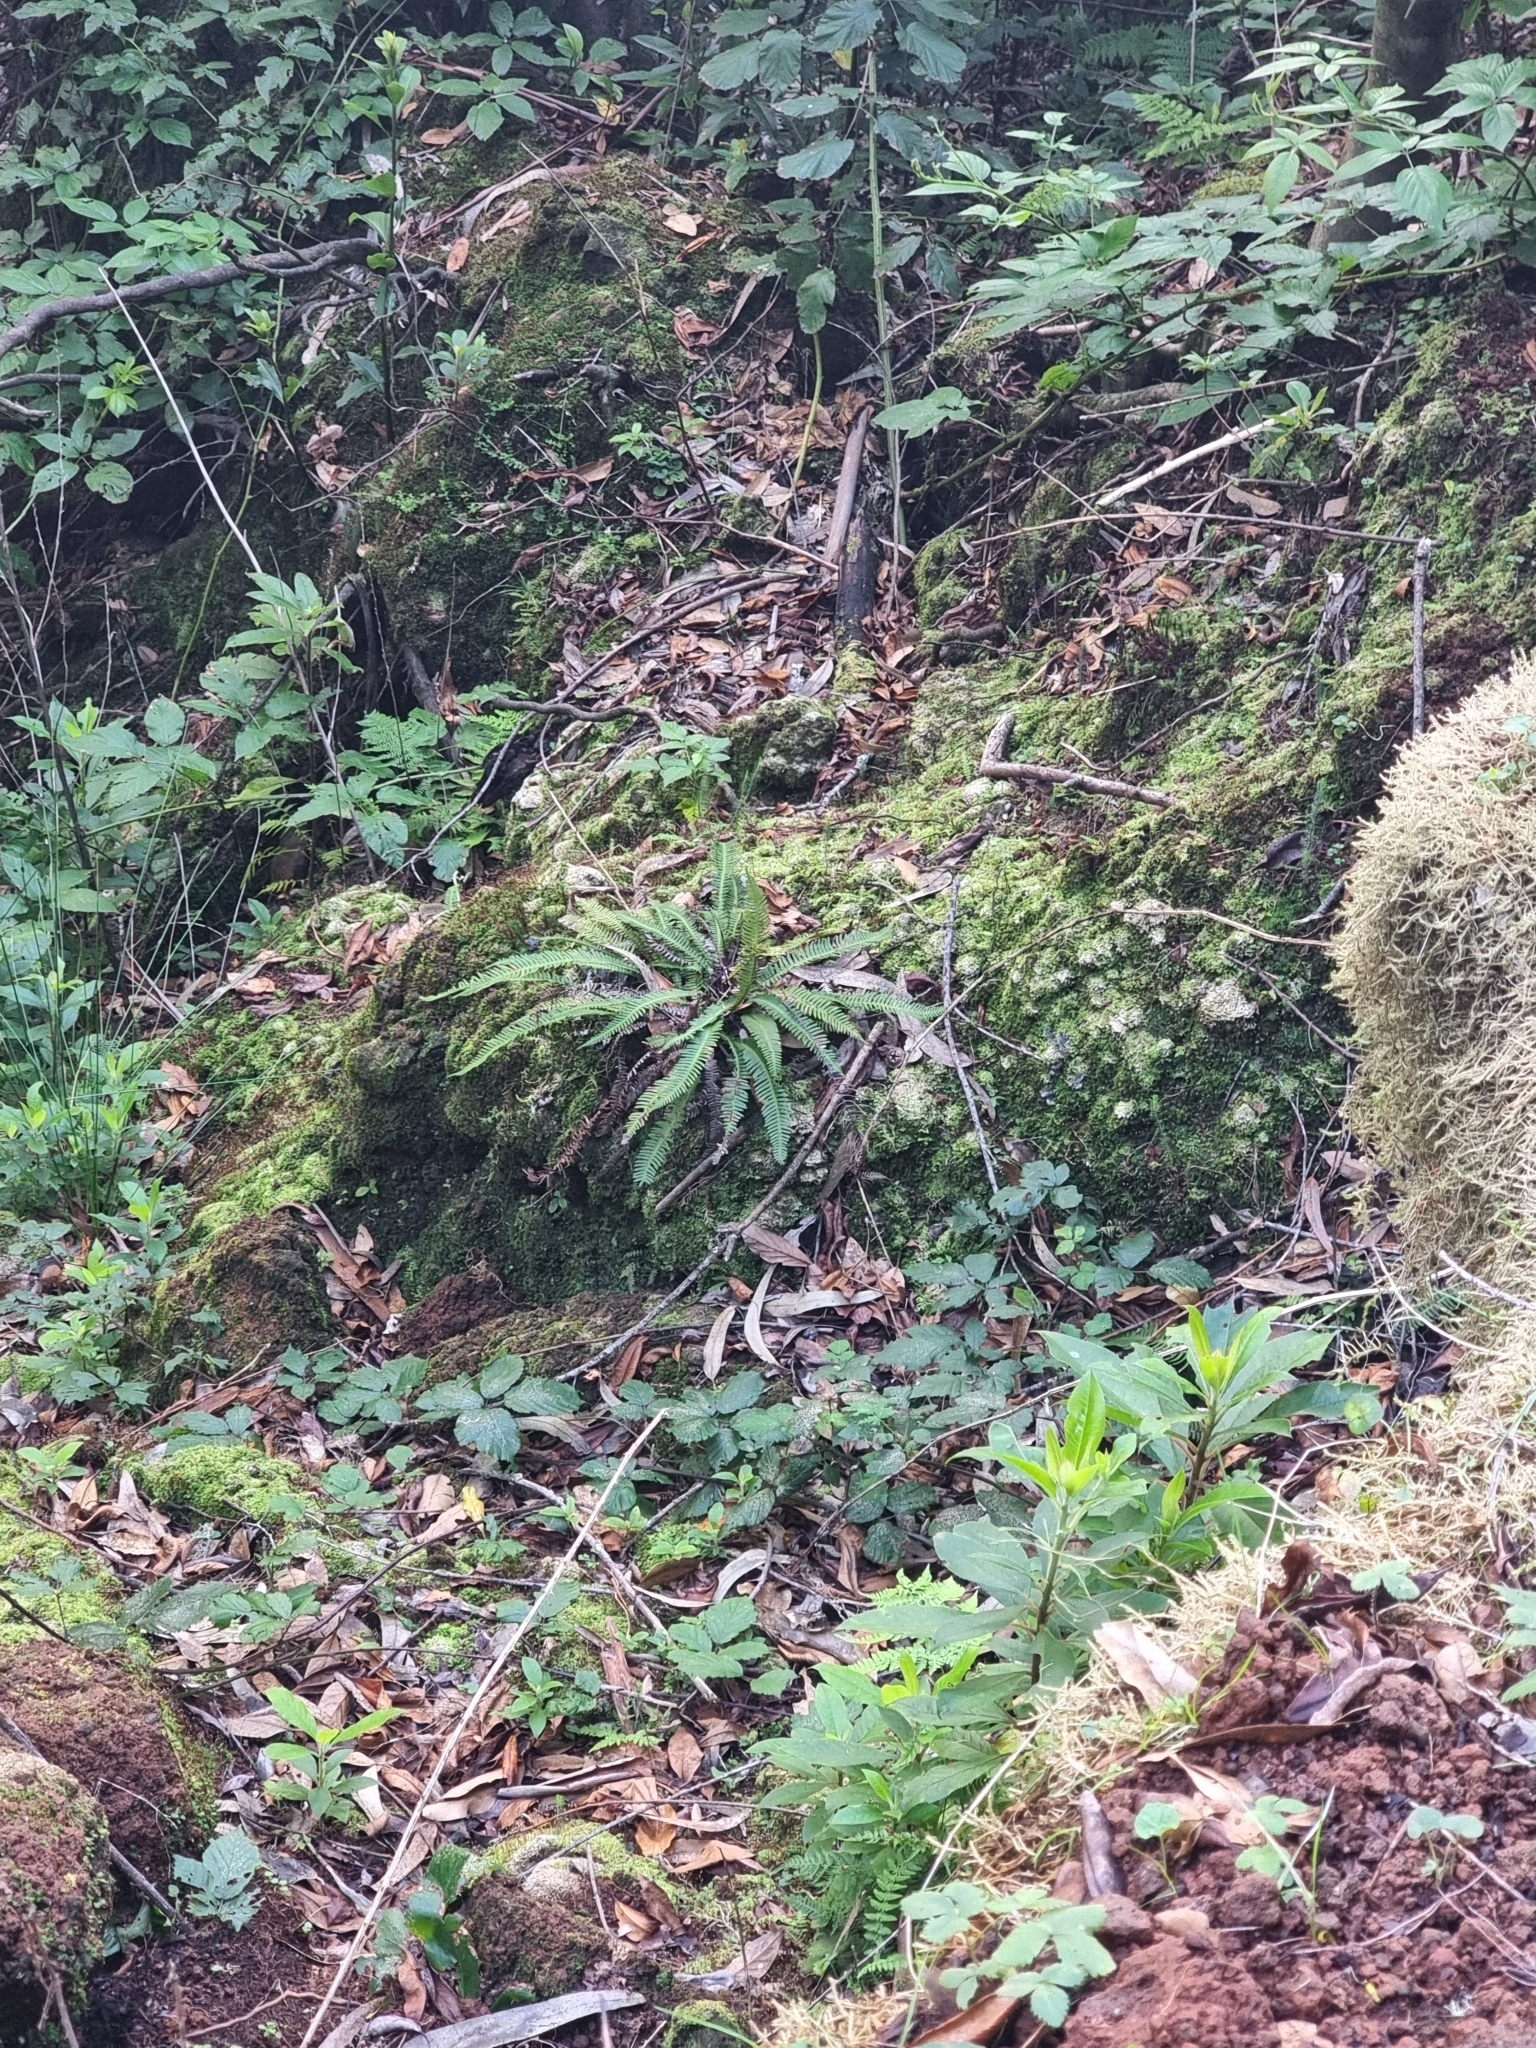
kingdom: Plantae
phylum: Tracheophyta
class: Polypodiopsida
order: Polypodiales
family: Blechnaceae
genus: Struthiopteris
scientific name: Struthiopteris spicant
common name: Deer fern
